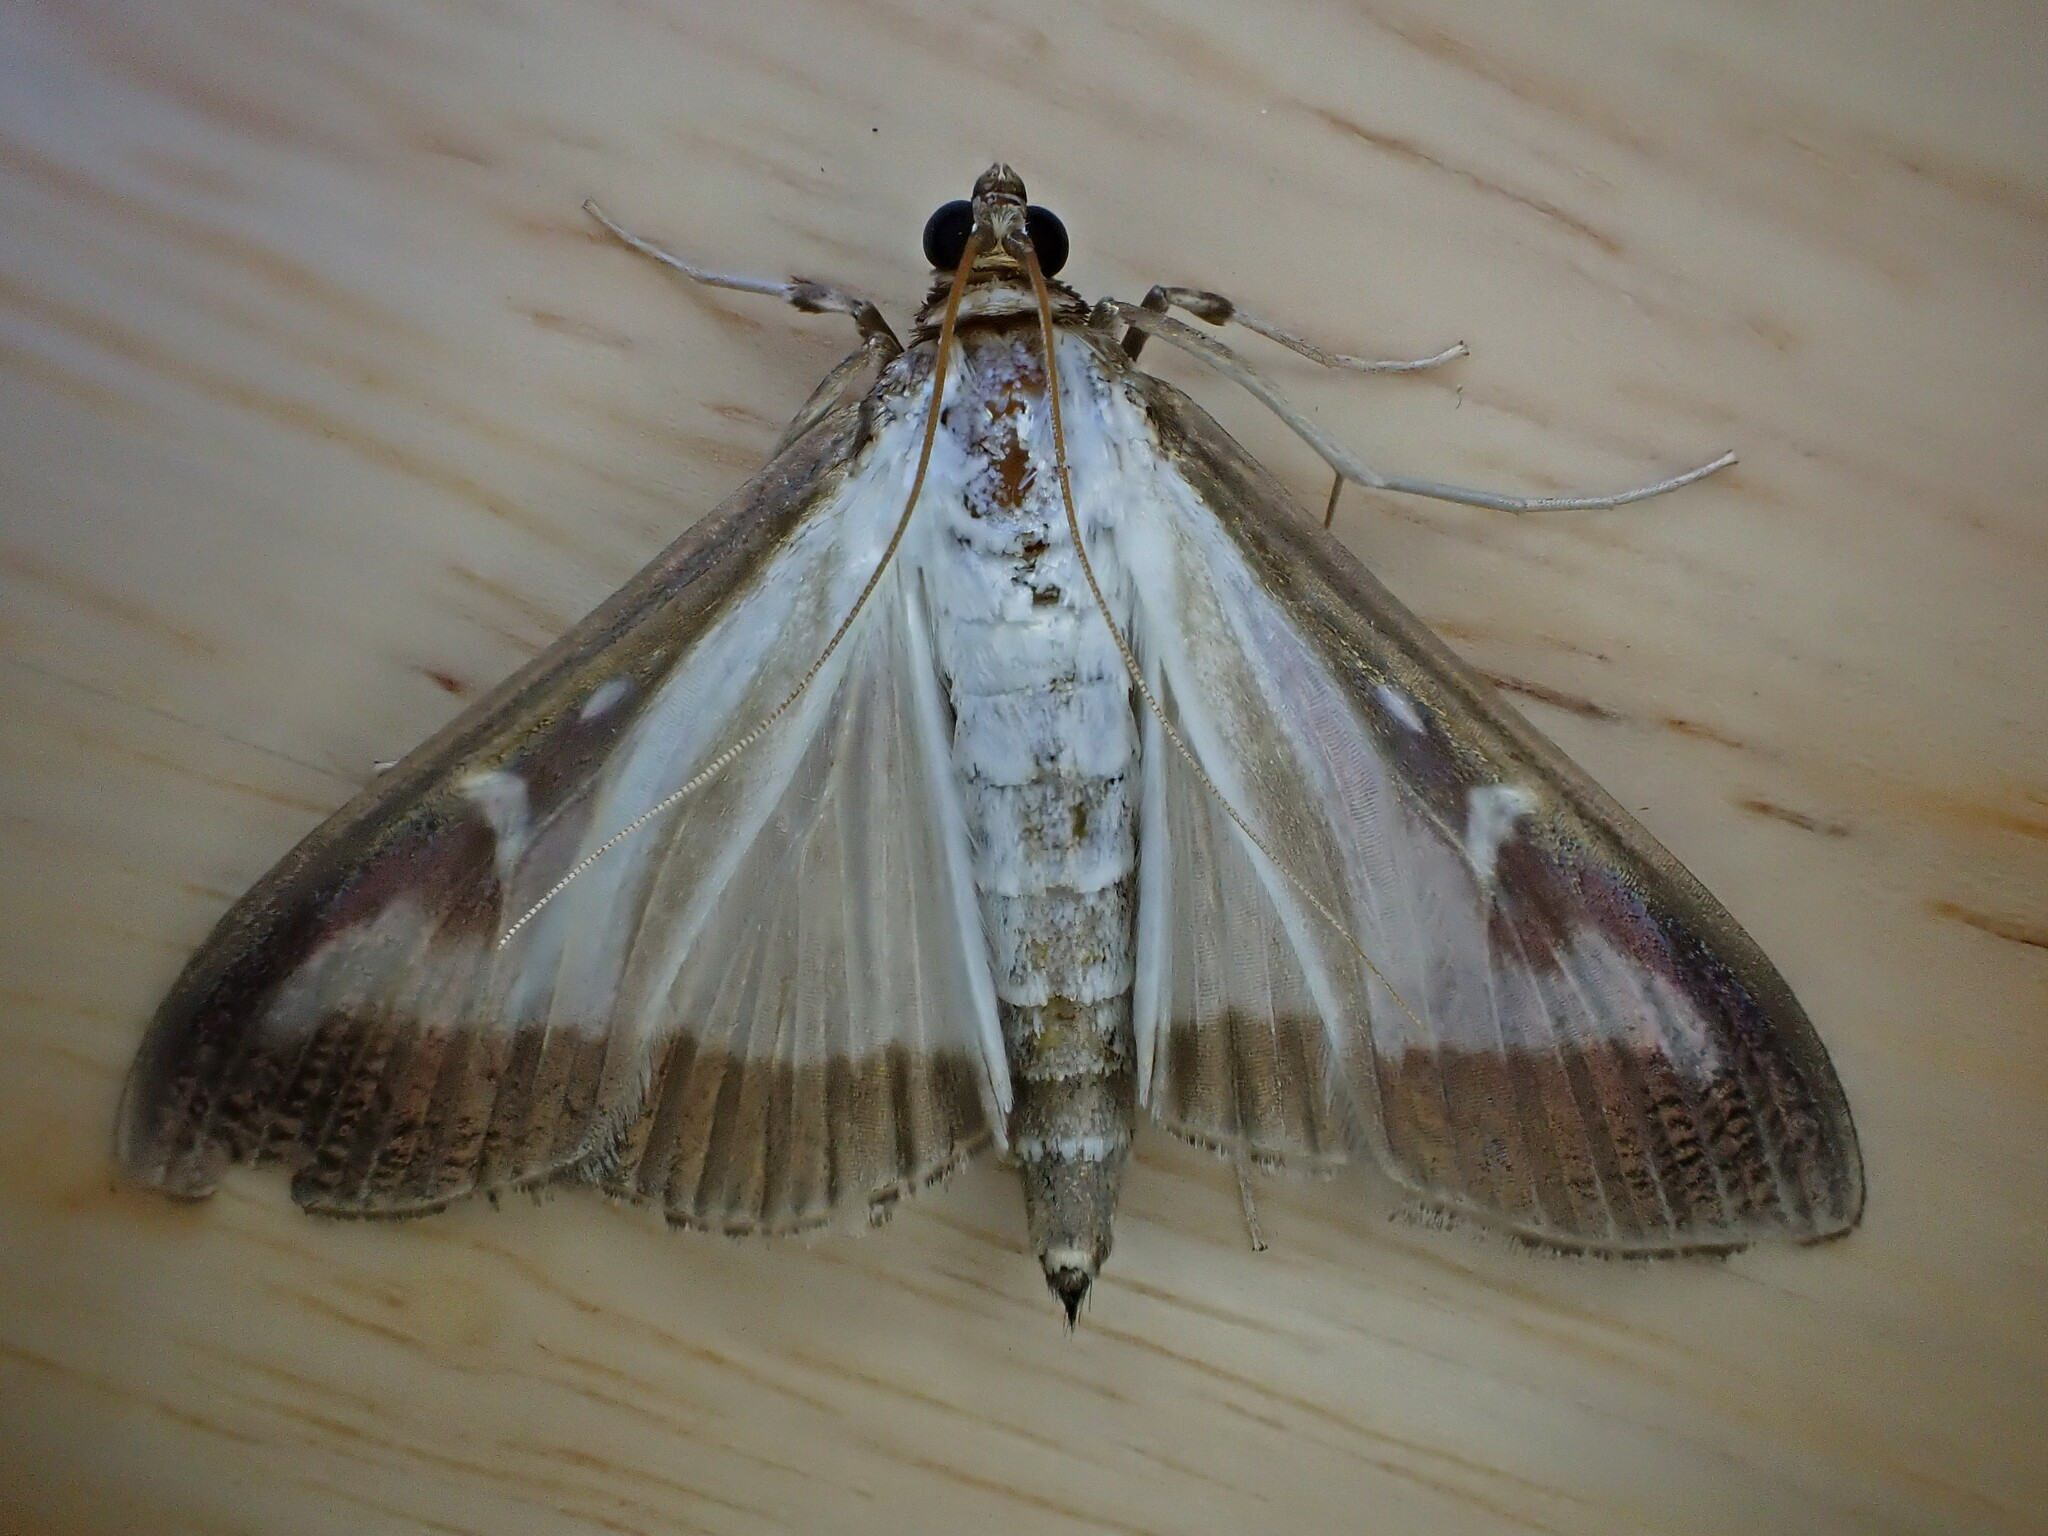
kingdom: Animalia
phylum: Arthropoda
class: Insecta
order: Lepidoptera
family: Crambidae
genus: Cydalima
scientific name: Cydalima perspectalis
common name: Box tree moth
